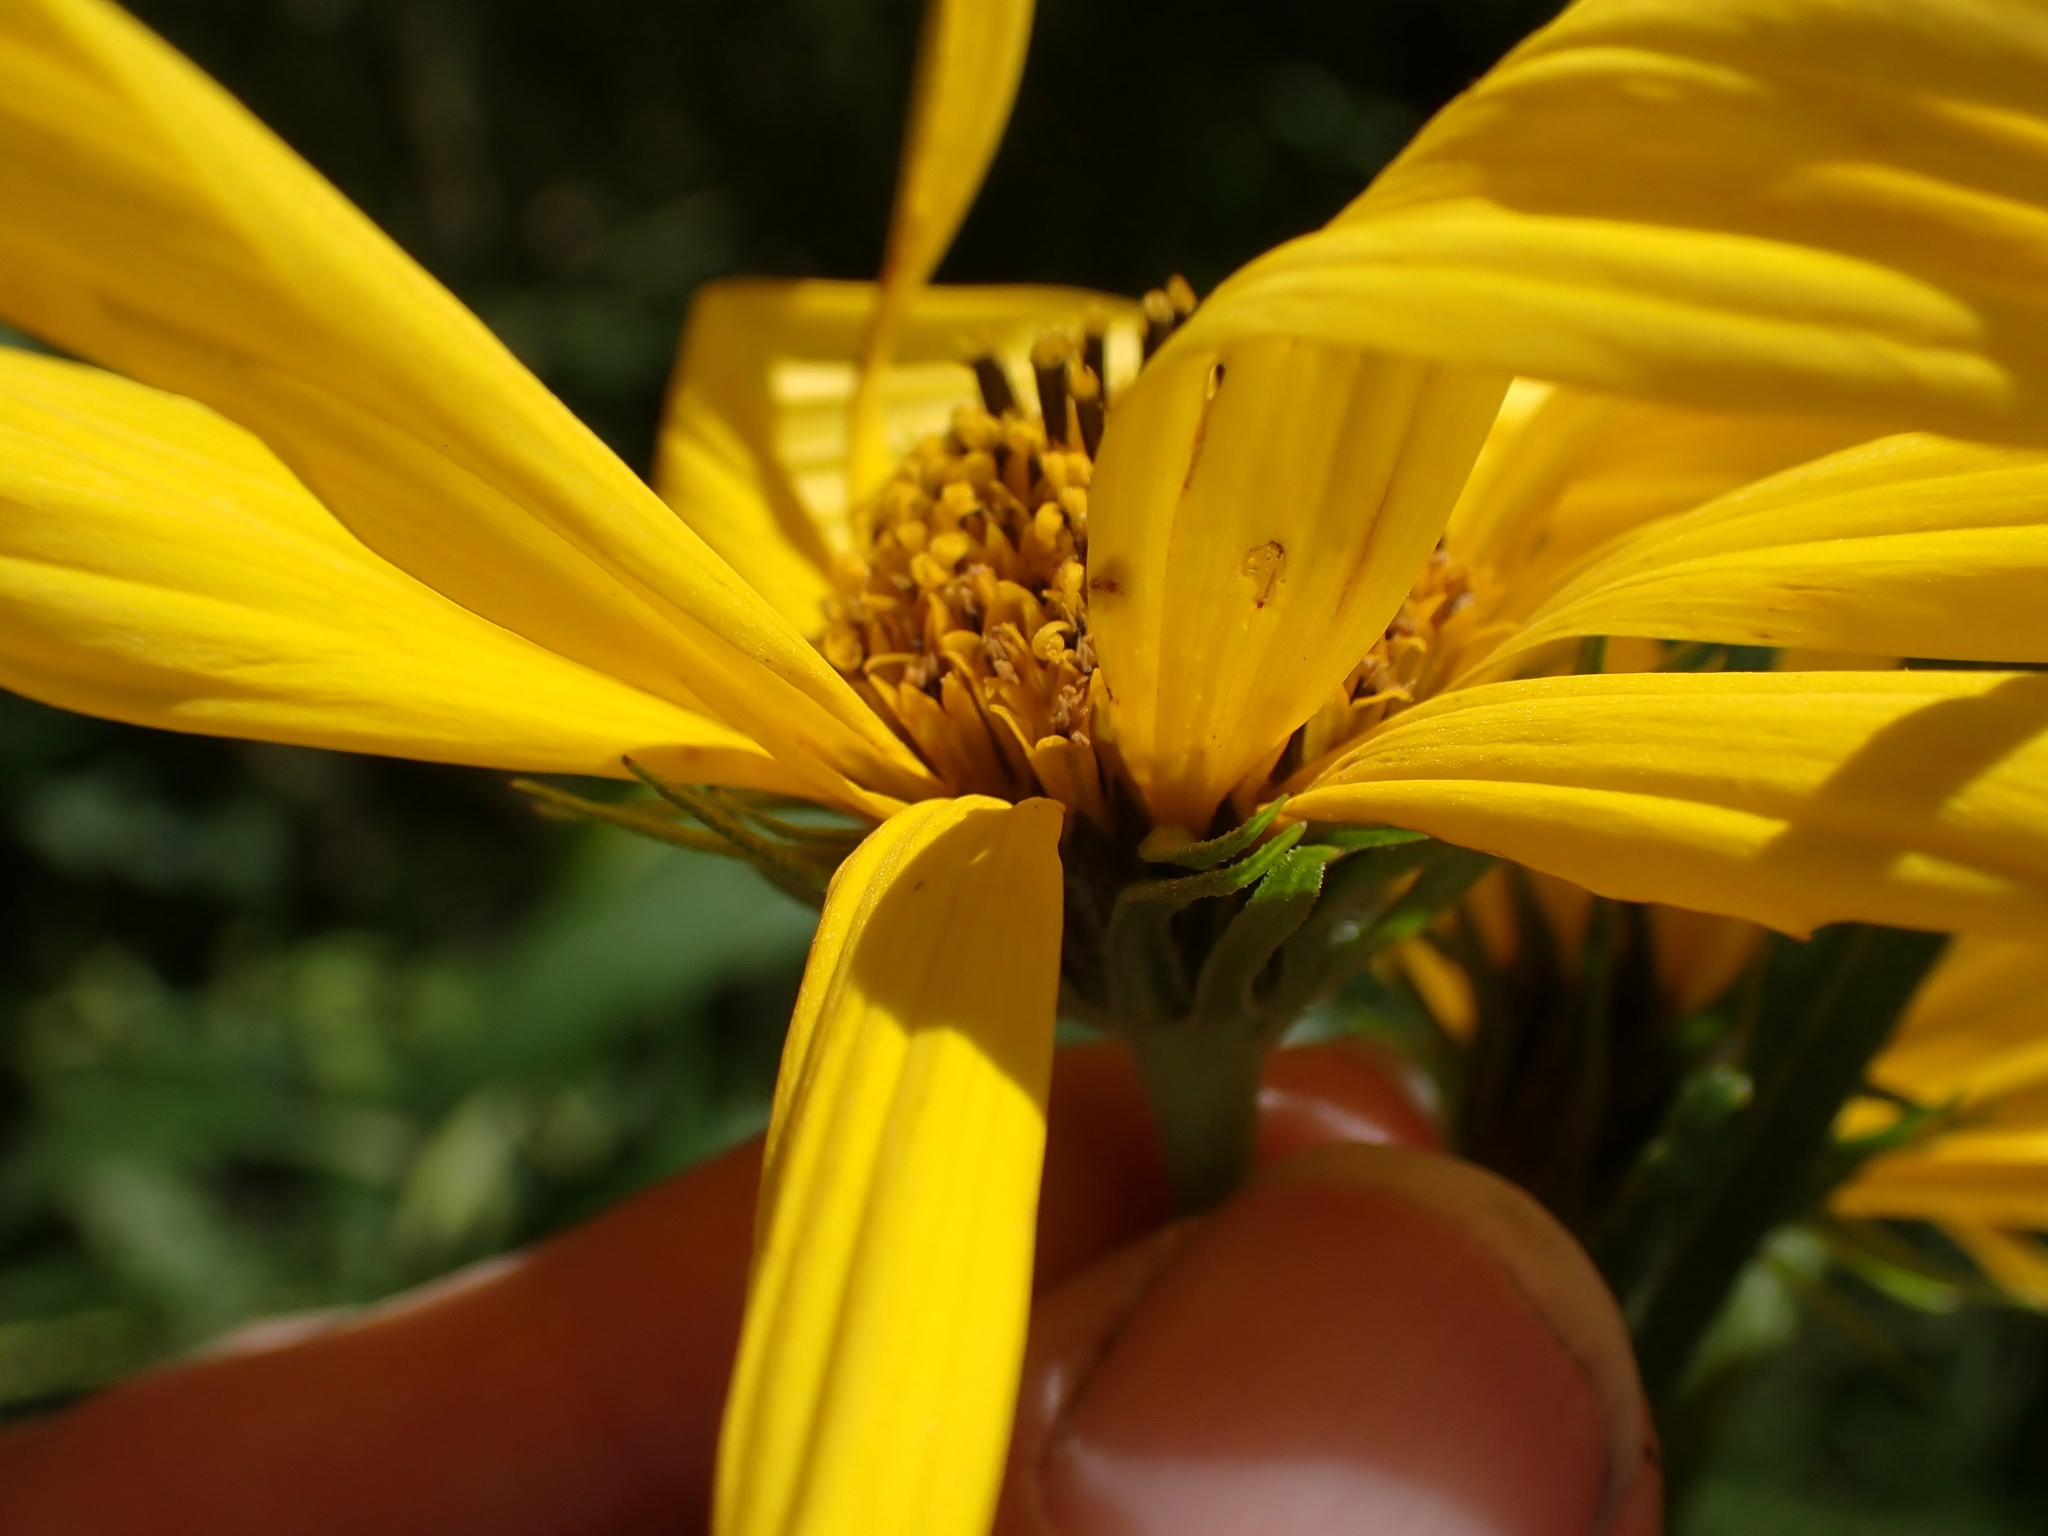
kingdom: Plantae
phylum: Tracheophyta
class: Magnoliopsida
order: Asterales
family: Asteraceae
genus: Helianthus
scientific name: Helianthus nuttallii
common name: Nuttall's sunflower
